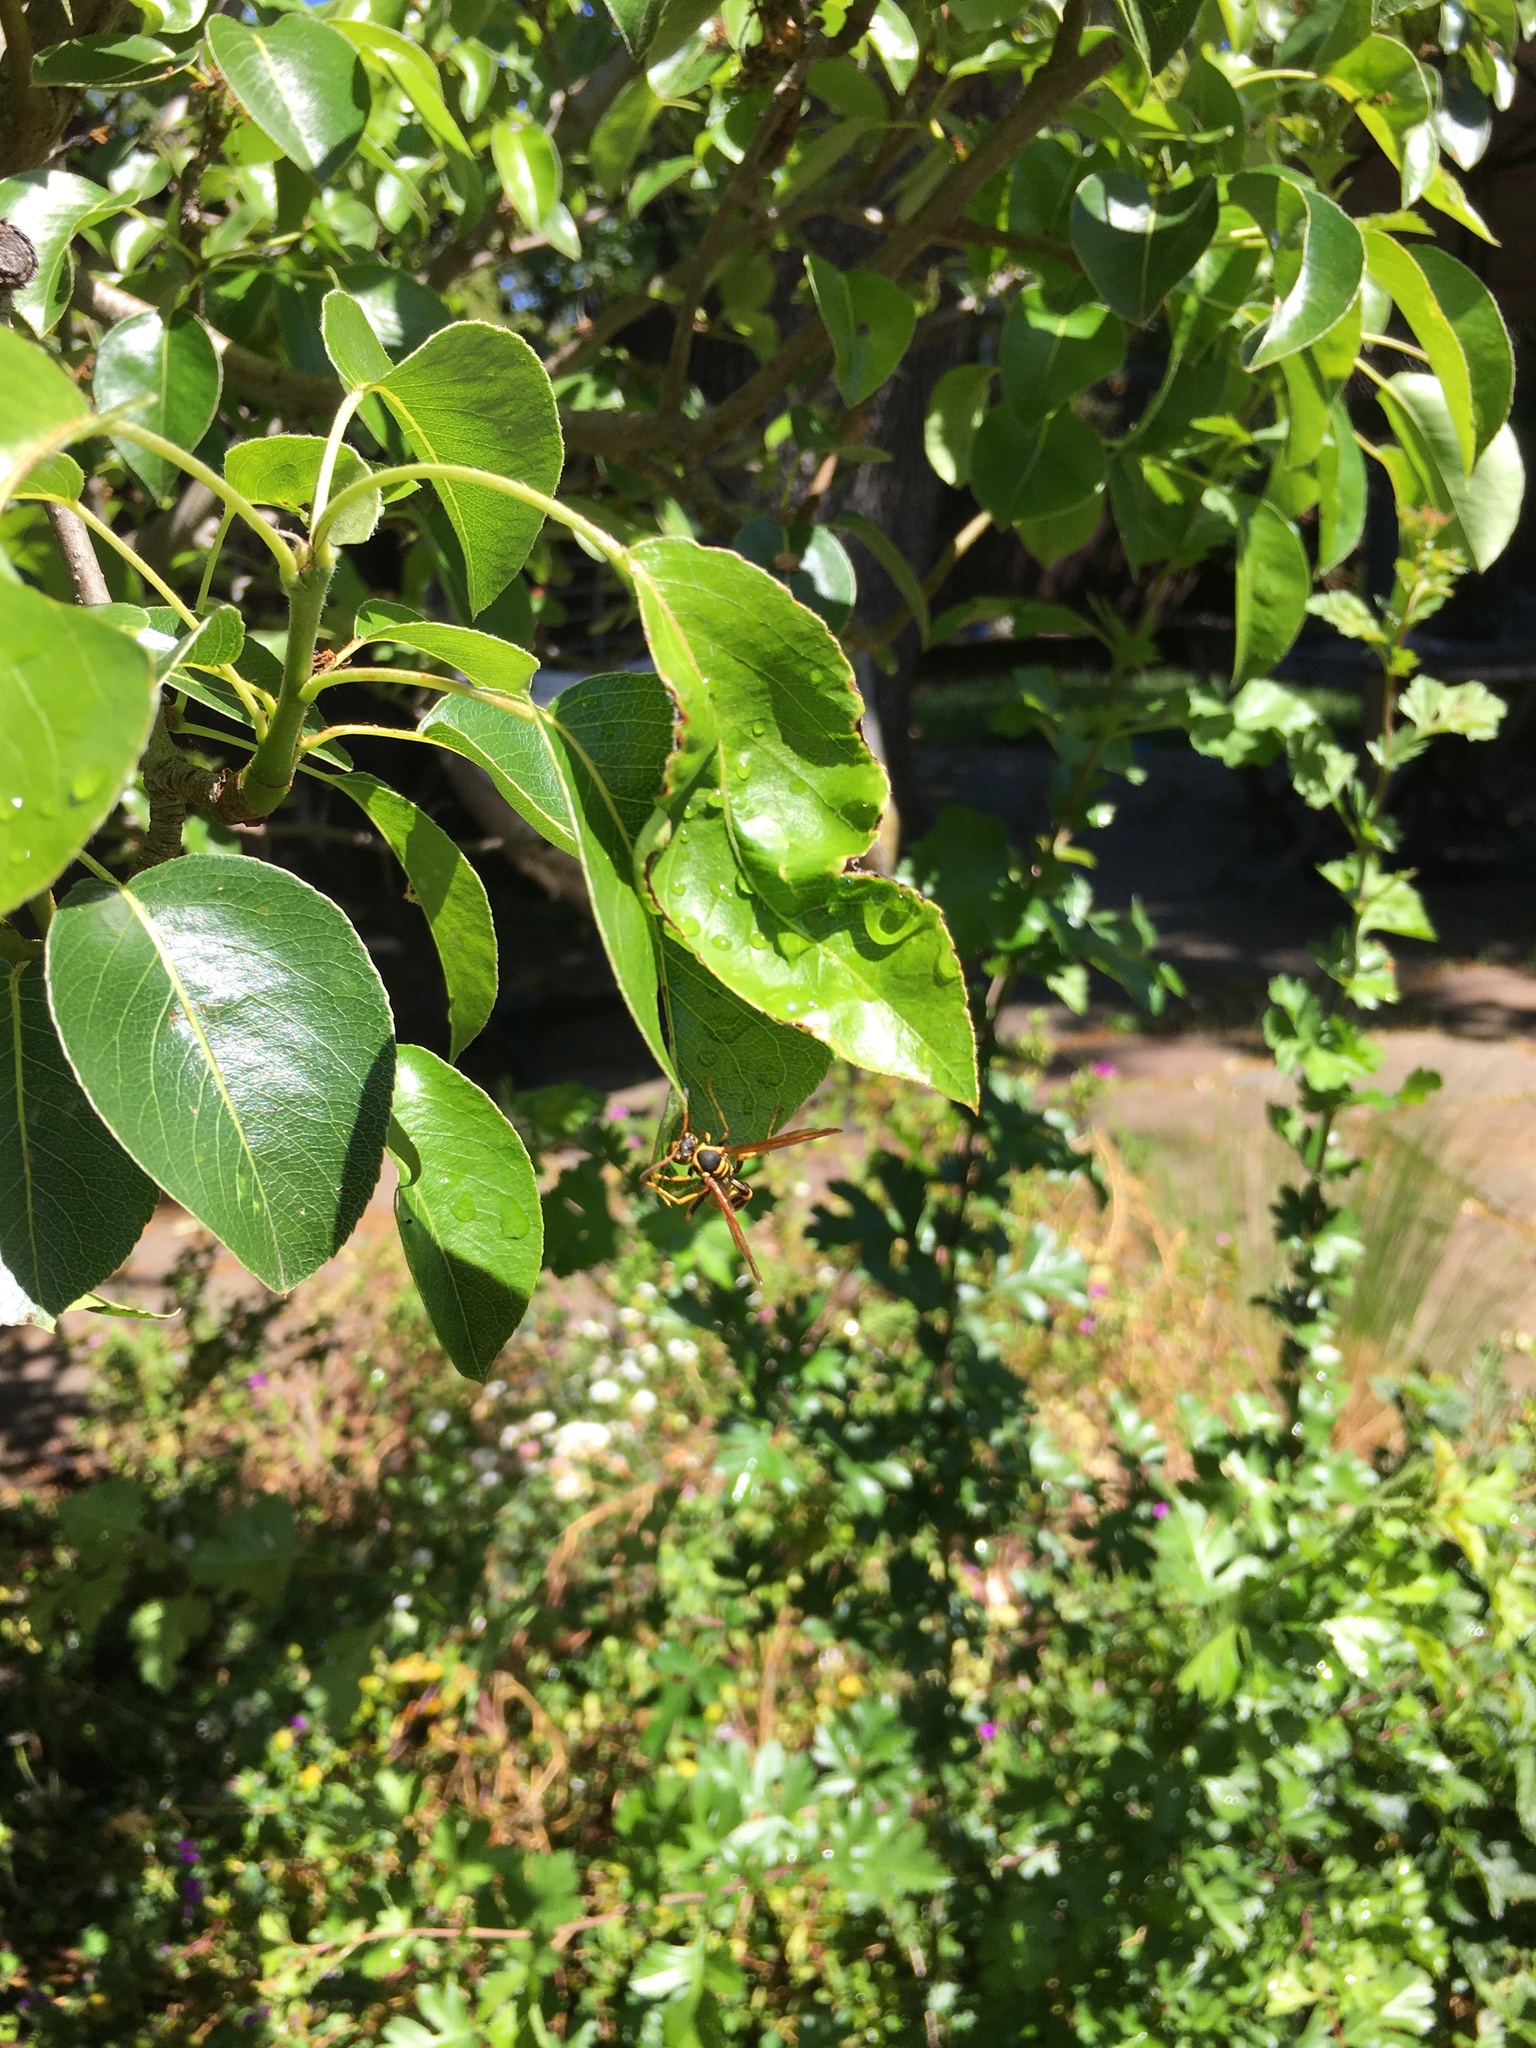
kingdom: Animalia
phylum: Arthropoda
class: Insecta
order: Hymenoptera
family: Vespidae
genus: Mischocyttarus
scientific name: Mischocyttarus flavitarsis
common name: Wasp
